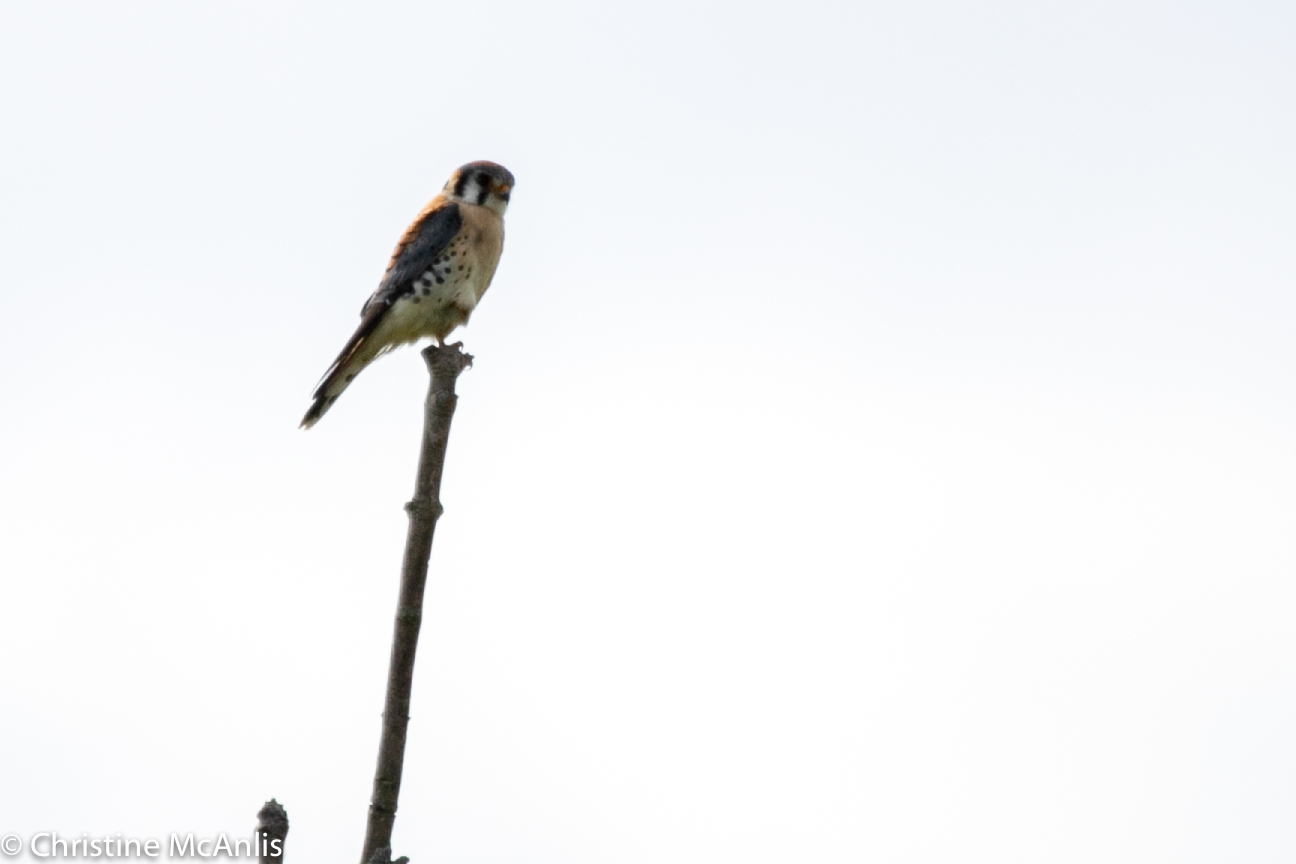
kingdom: Animalia
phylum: Chordata
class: Aves
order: Falconiformes
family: Falconidae
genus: Falco
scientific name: Falco sparverius
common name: American kestrel
